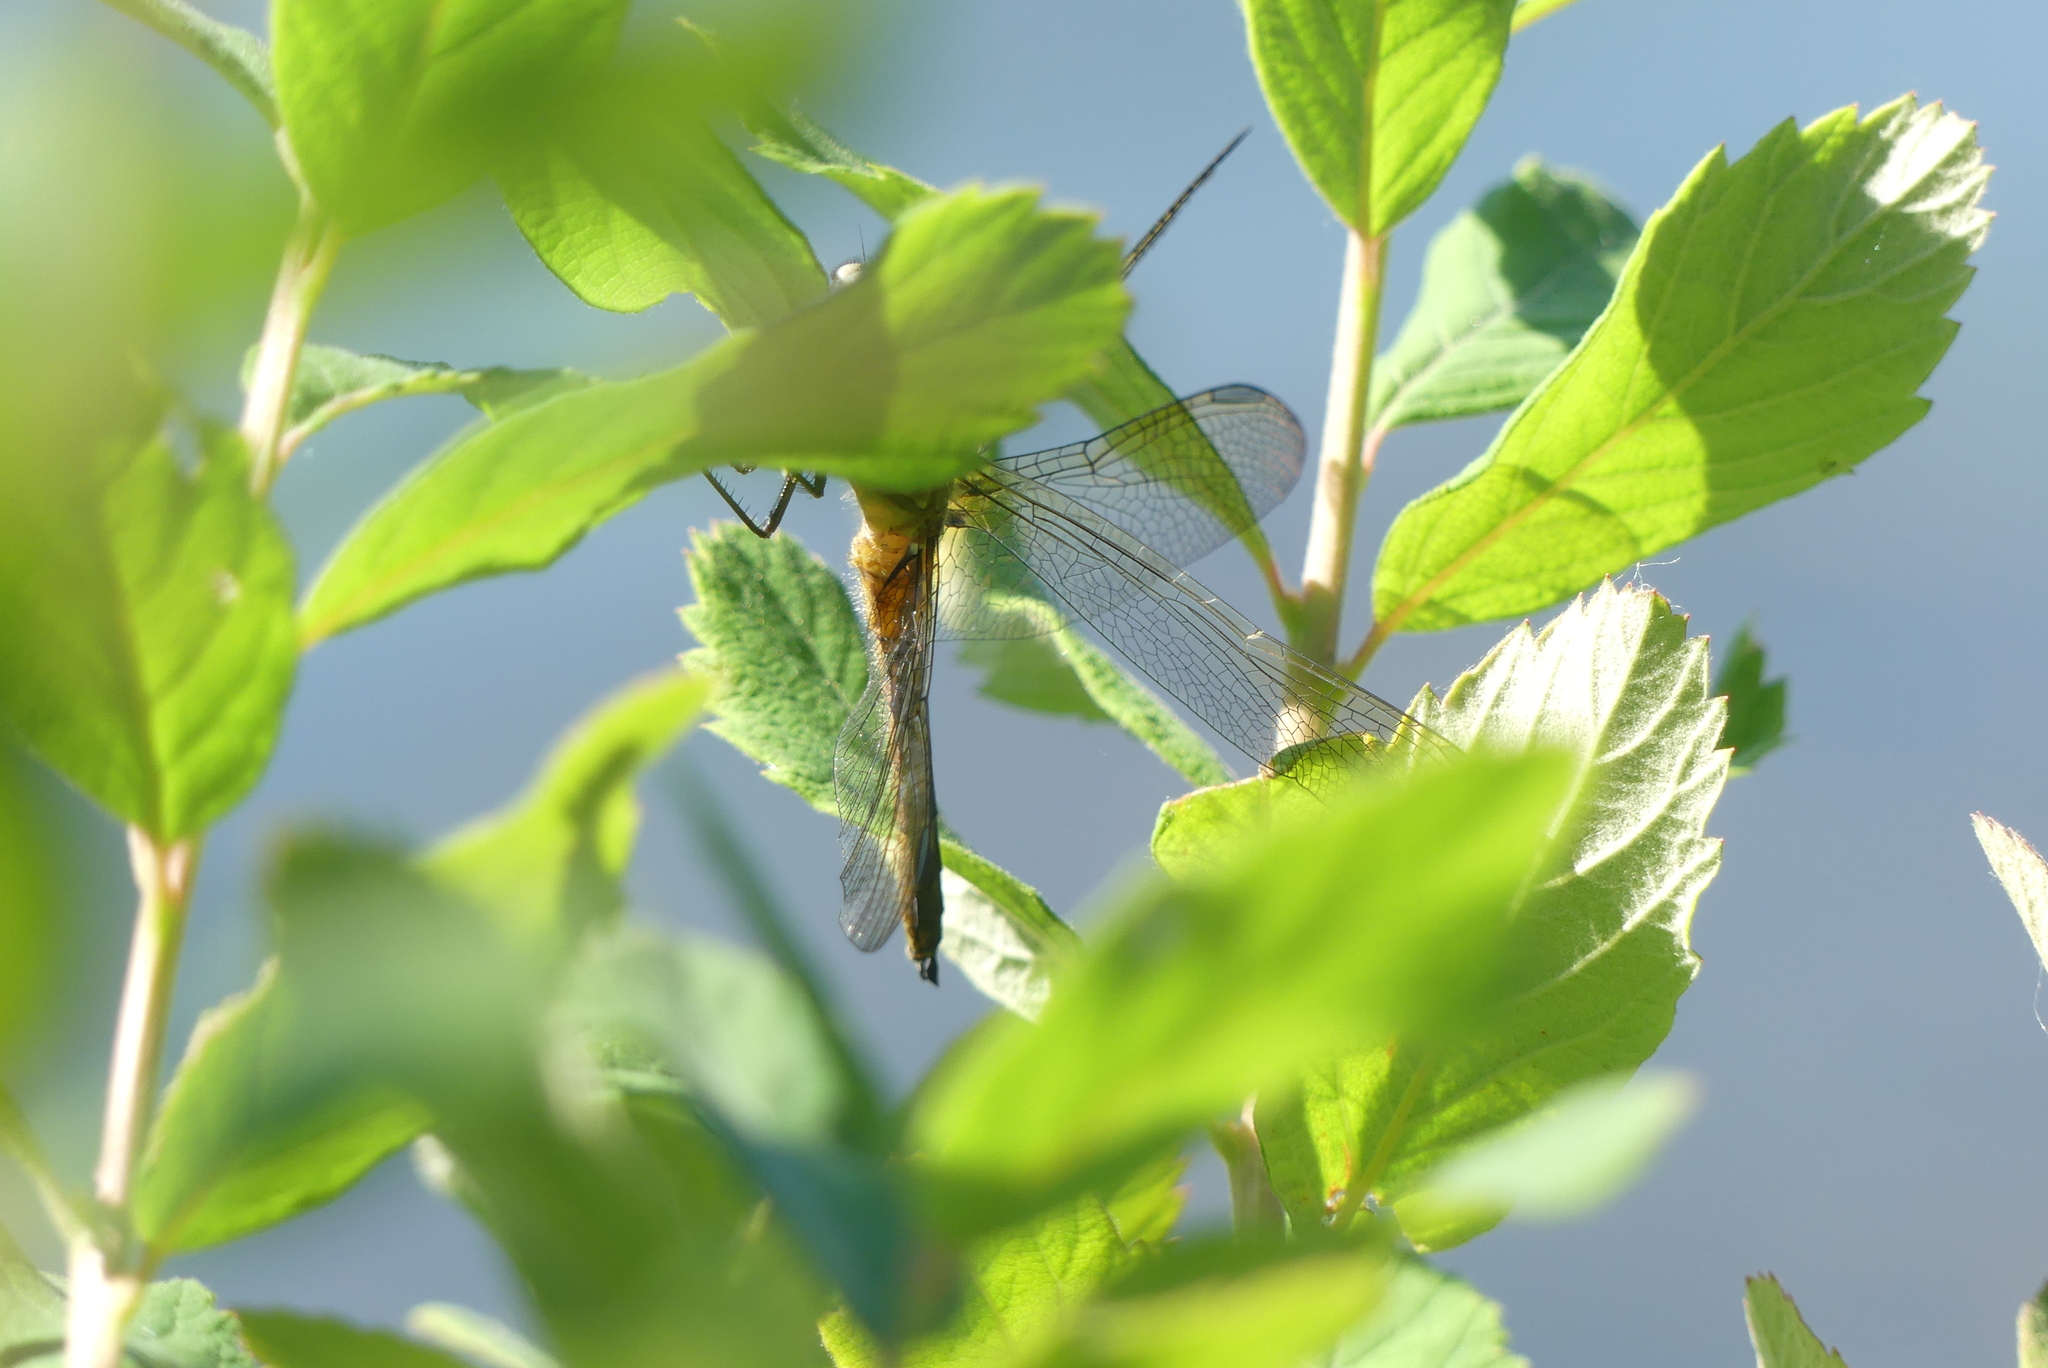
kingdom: Animalia
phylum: Arthropoda
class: Insecta
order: Odonata
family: Libellulidae
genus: Pachydiplax
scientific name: Pachydiplax longipennis
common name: Blue dasher
